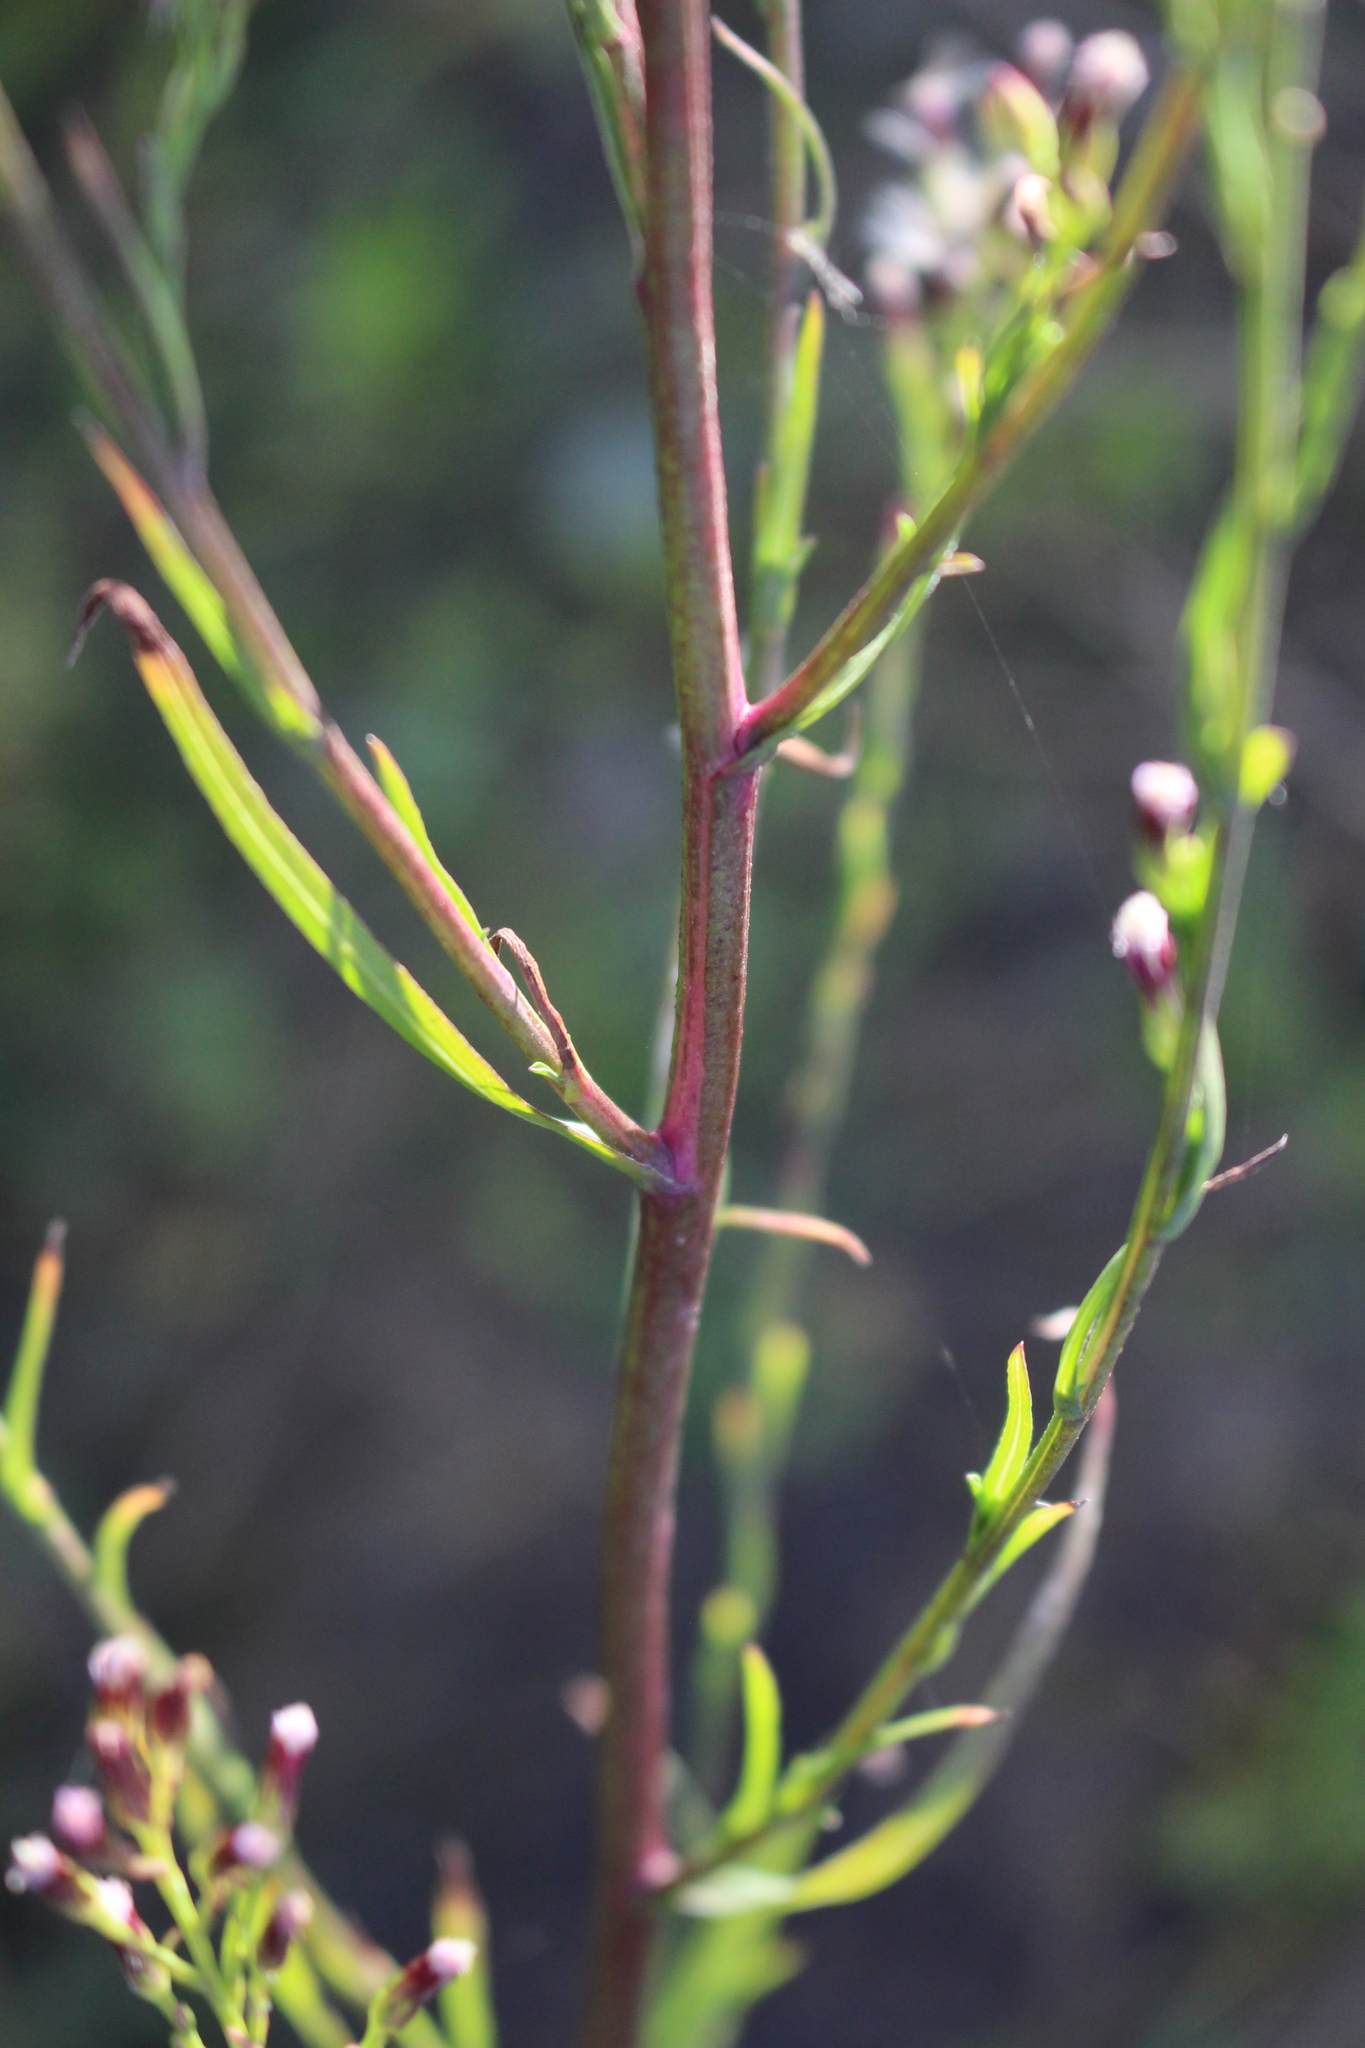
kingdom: Plantae
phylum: Tracheophyta
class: Magnoliopsida
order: Asterales
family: Asteraceae
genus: Symphyotrichum
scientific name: Symphyotrichum subulatum
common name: Annual saltmarsh aster
